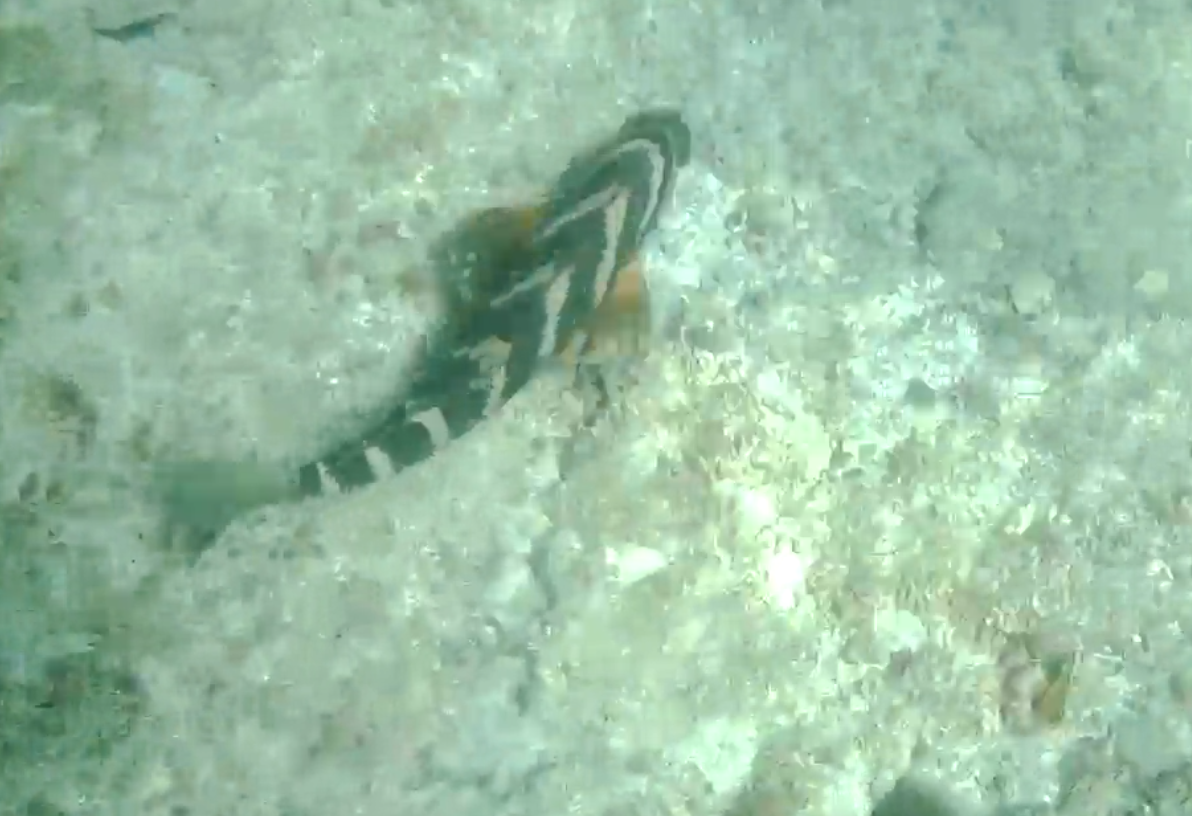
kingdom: Animalia
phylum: Chordata
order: Perciformes
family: Cheilodactylidae
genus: Cheilodactylus
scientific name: Cheilodactylus spectabilis
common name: Red moki
